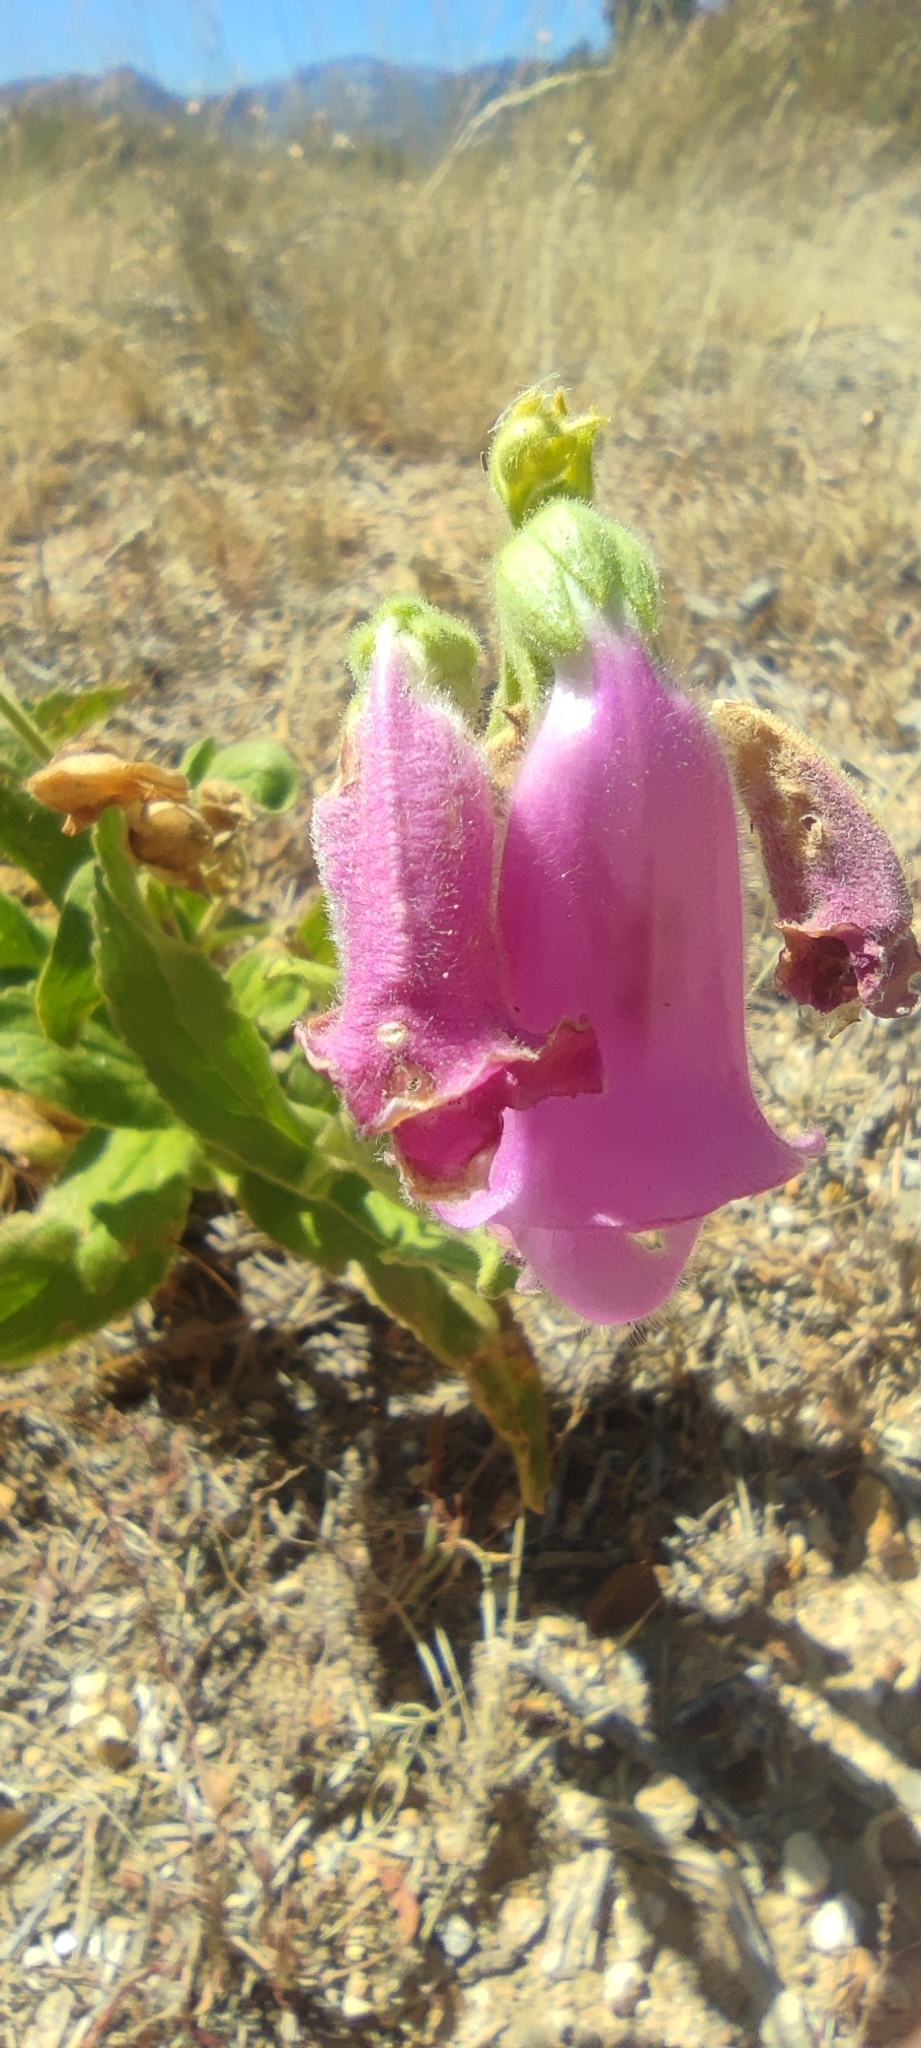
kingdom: Plantae
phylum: Tracheophyta
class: Magnoliopsida
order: Lamiales
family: Plantaginaceae
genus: Digitalis
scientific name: Digitalis thapsi
